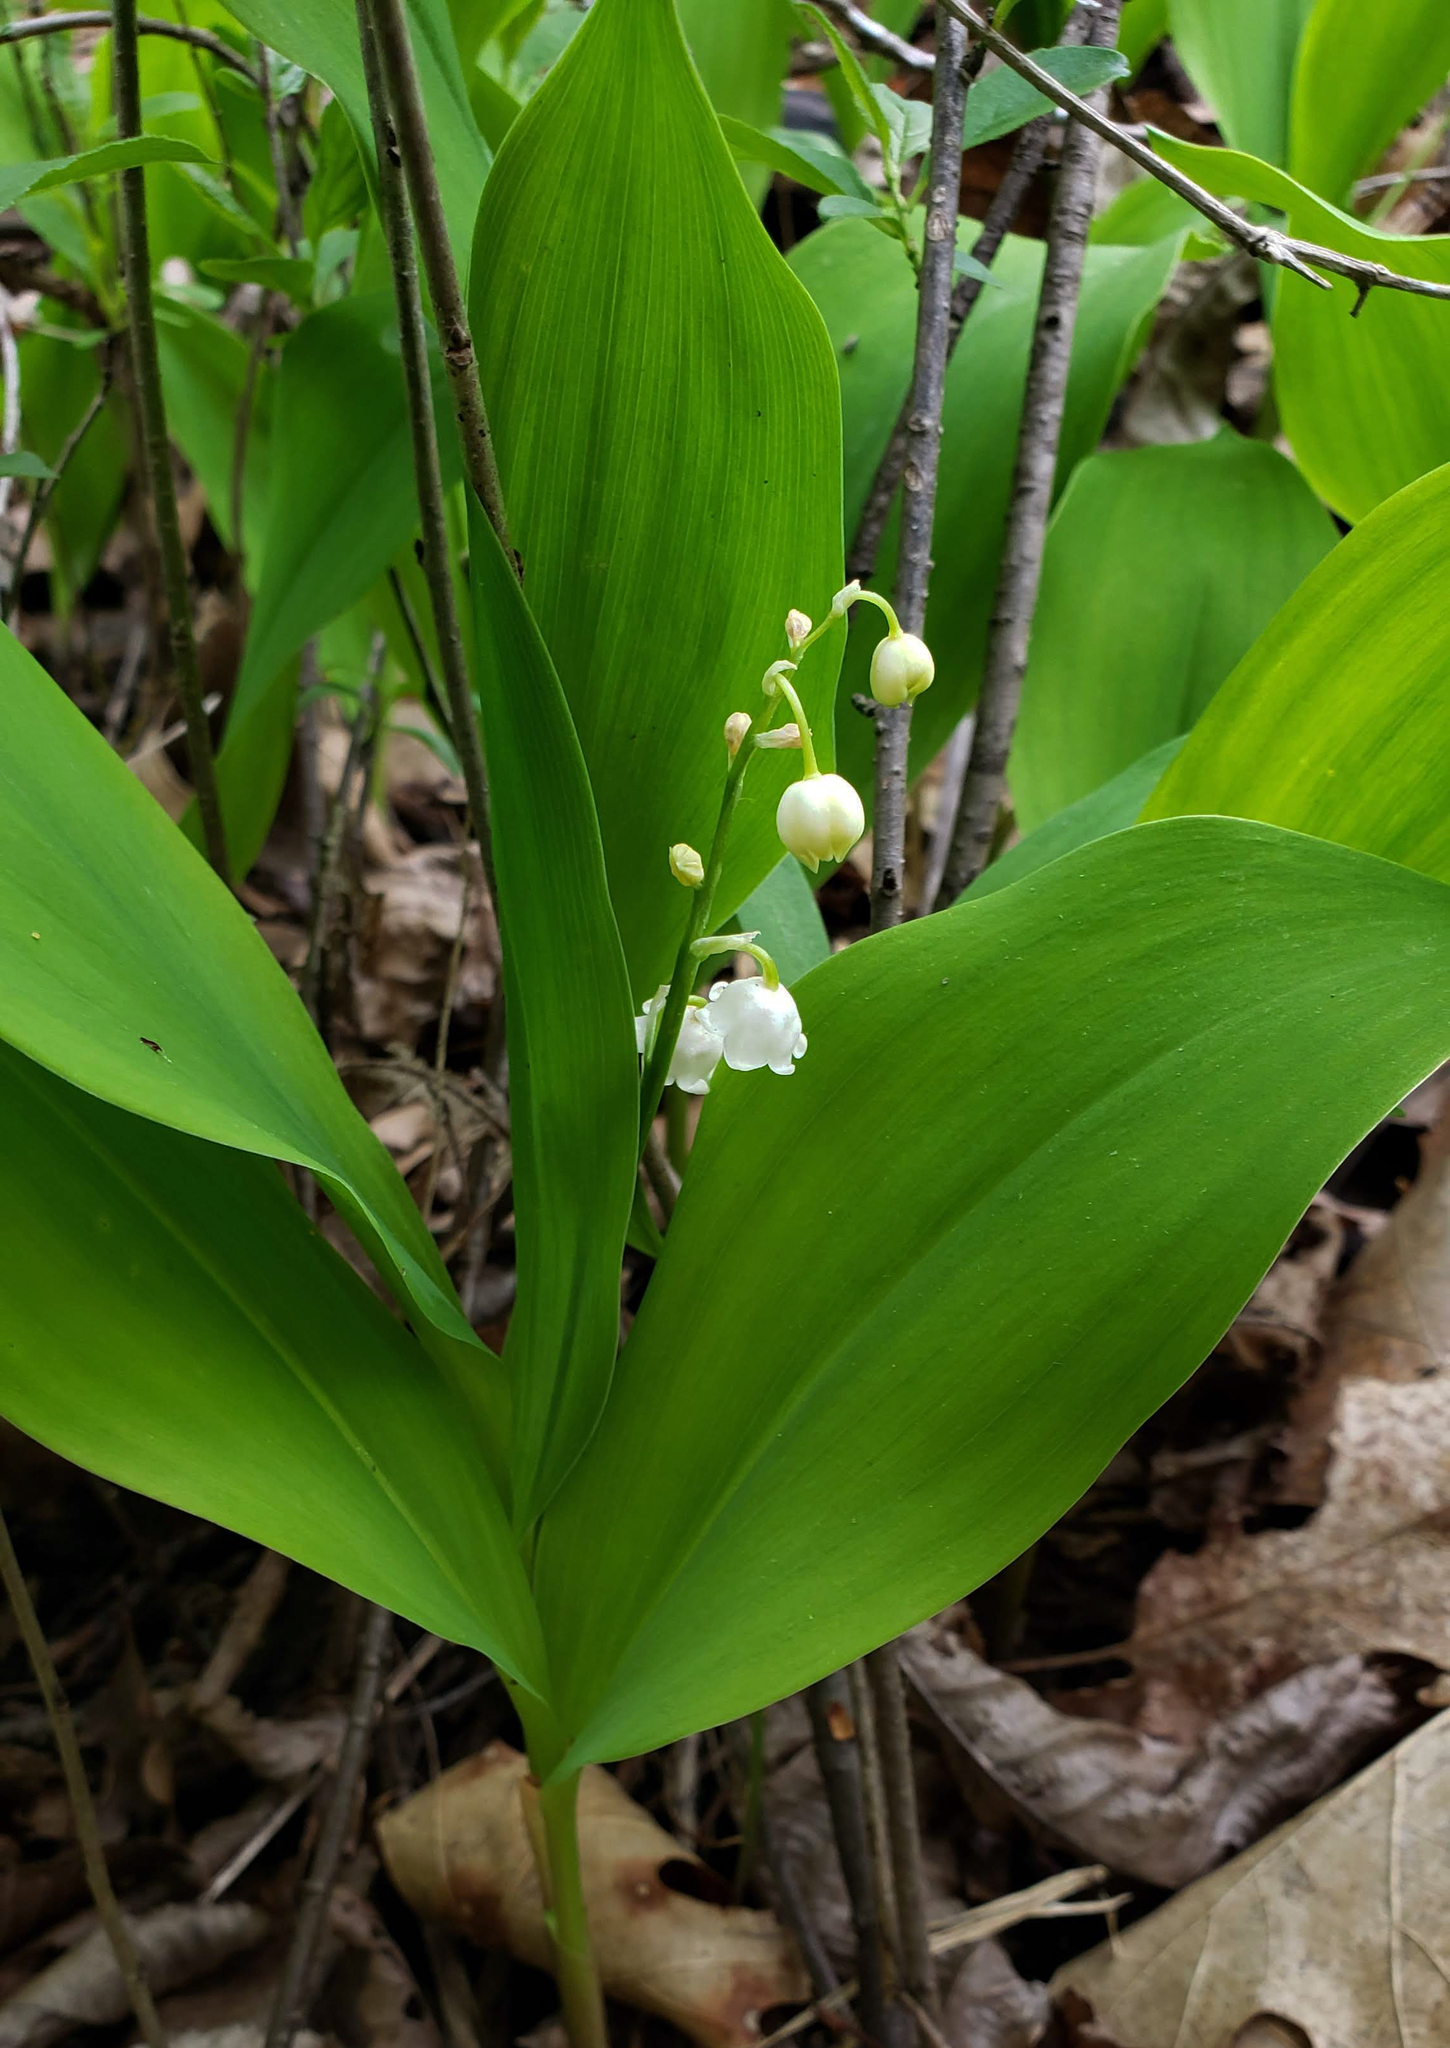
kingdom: Plantae
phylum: Tracheophyta
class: Liliopsida
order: Asparagales
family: Asparagaceae
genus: Convallaria
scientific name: Convallaria majalis
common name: Lily-of-the-valley
